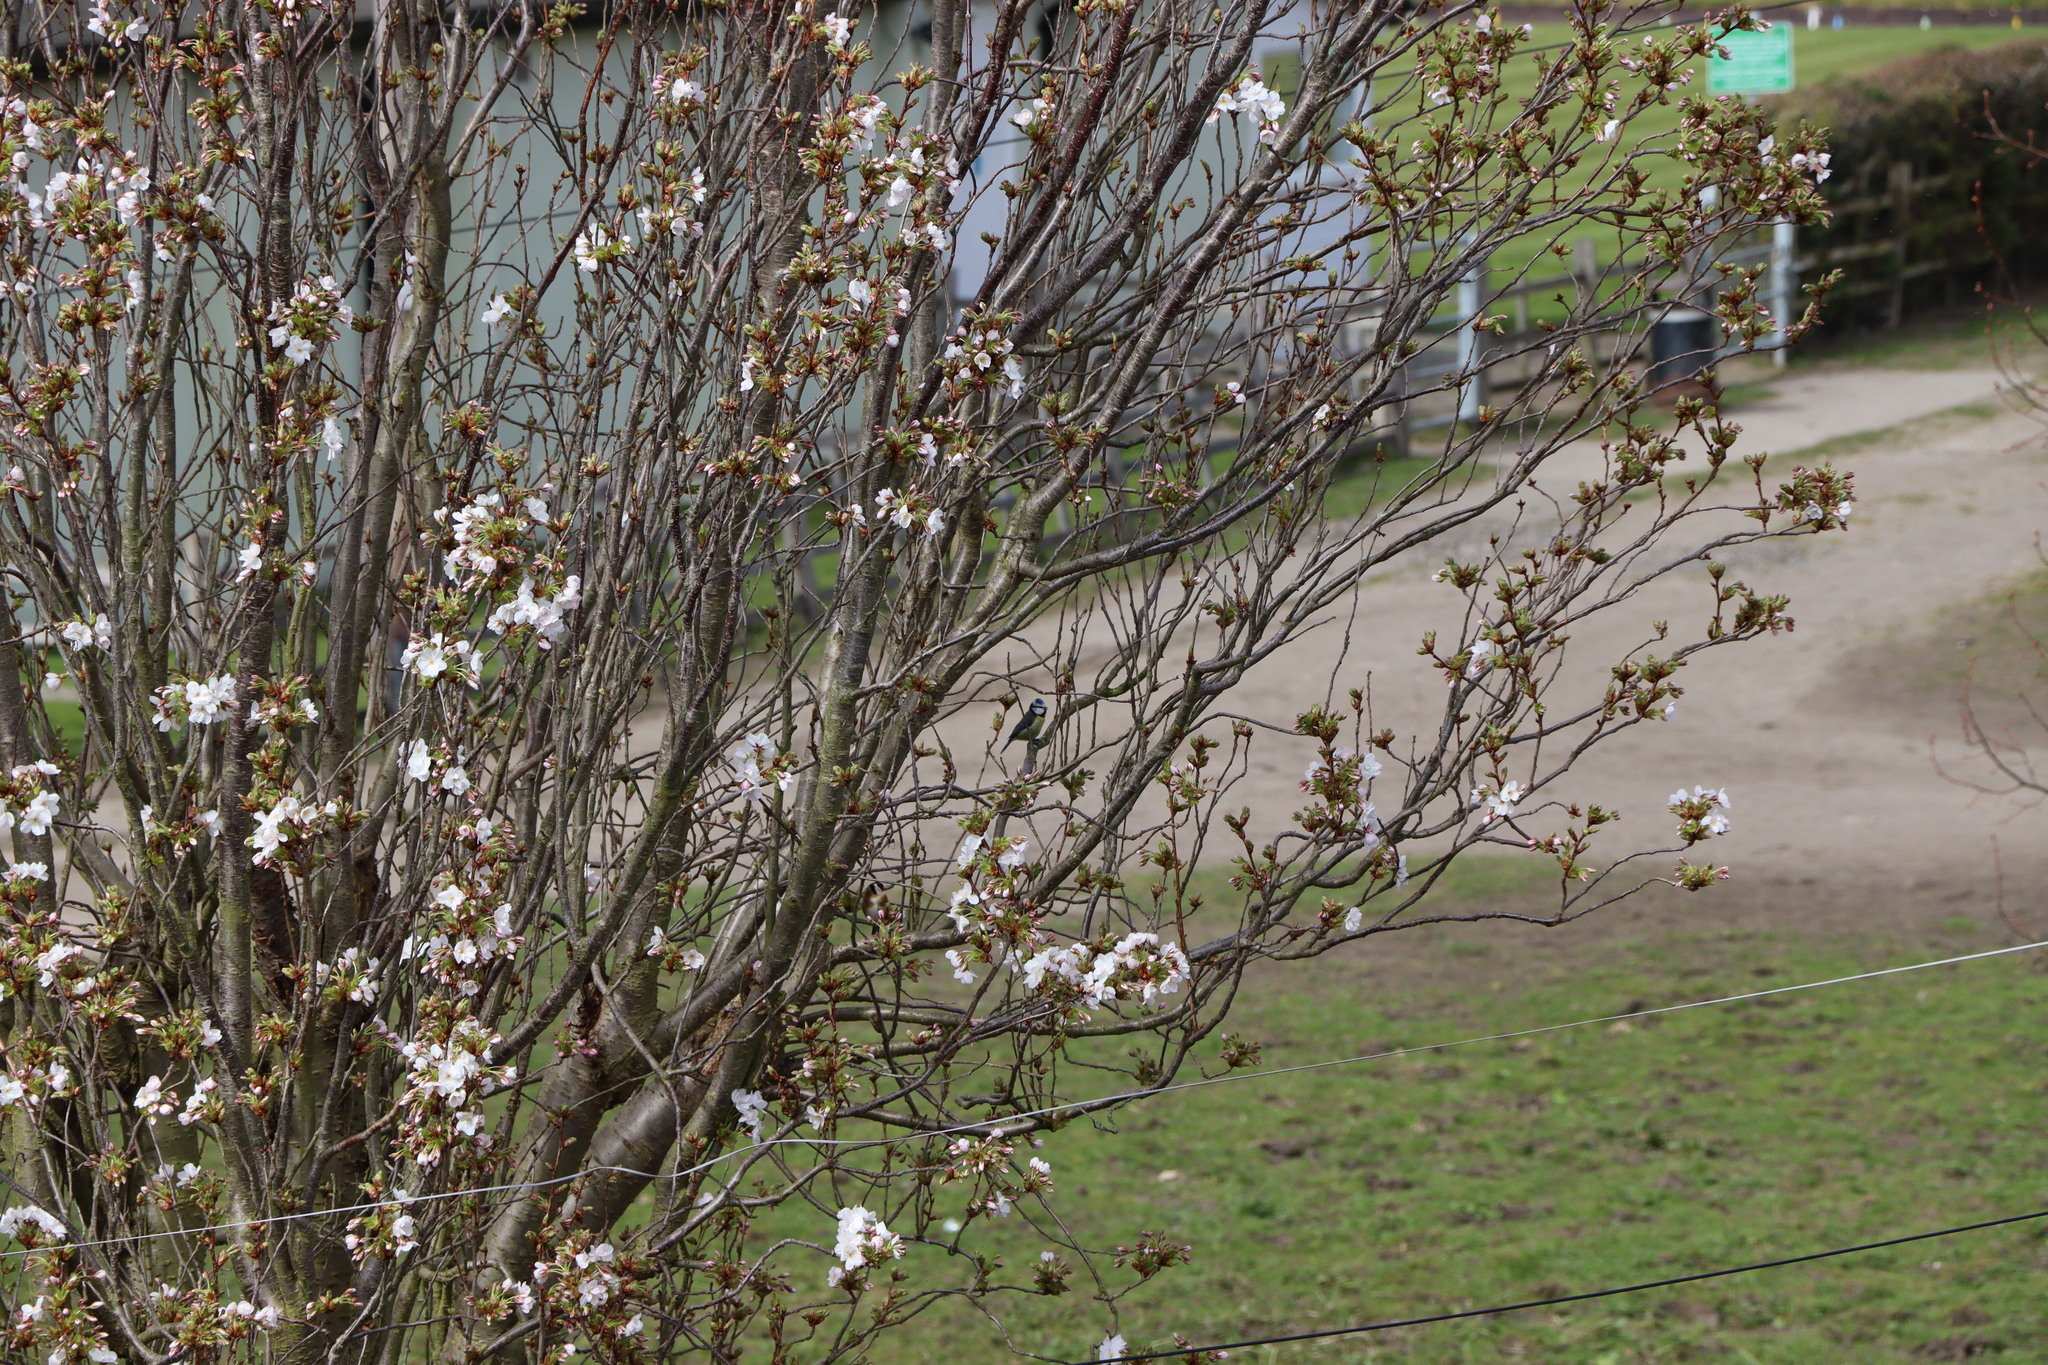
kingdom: Animalia
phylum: Chordata
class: Aves
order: Passeriformes
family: Paridae
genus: Cyanistes
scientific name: Cyanistes caeruleus
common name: Eurasian blue tit
